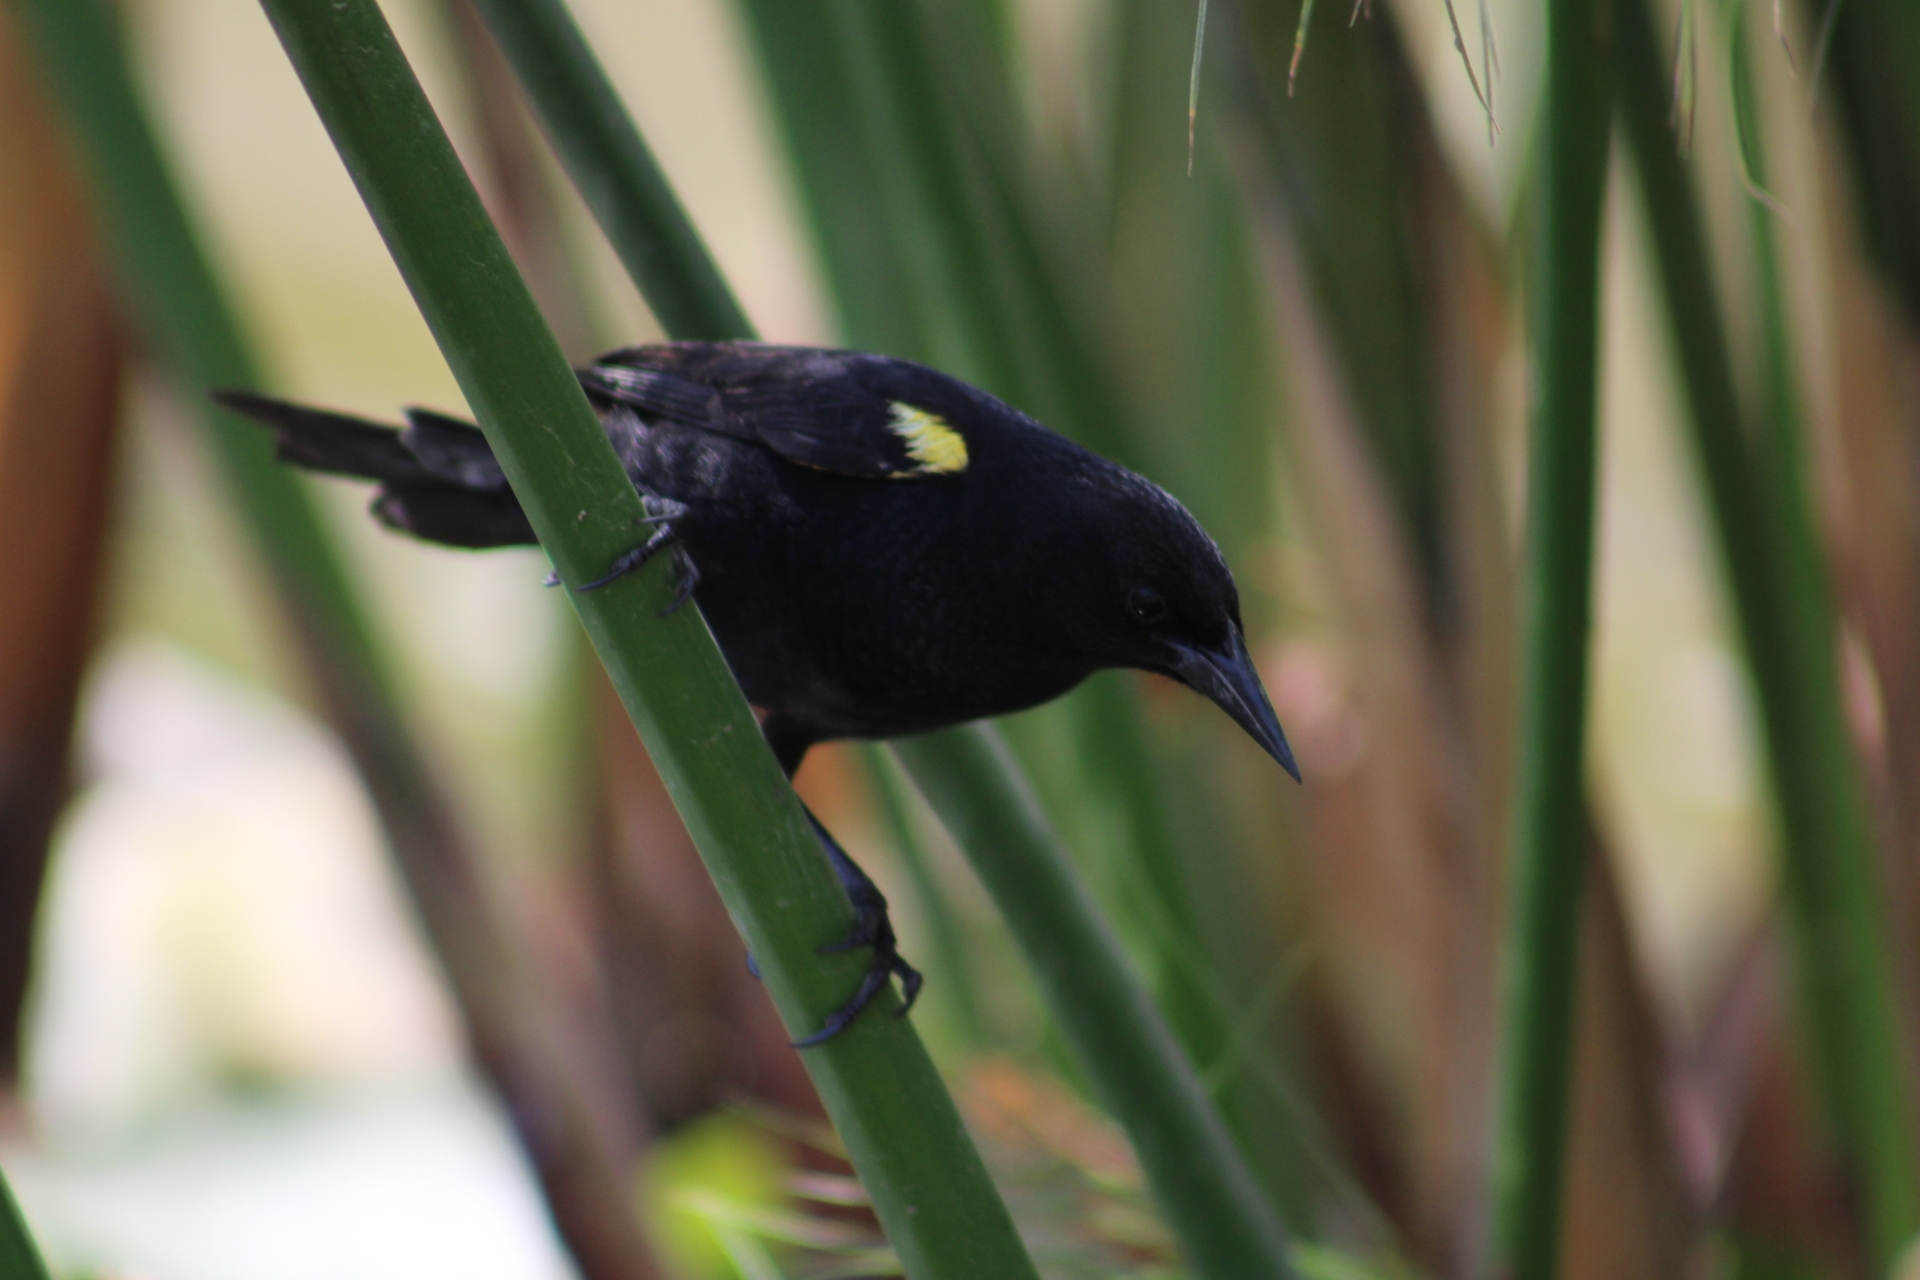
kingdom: Animalia
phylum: Chordata
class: Aves
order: Passeriformes
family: Icteridae
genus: Agelasticus
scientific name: Agelasticus thilius
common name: Yellow-winged blackbird
